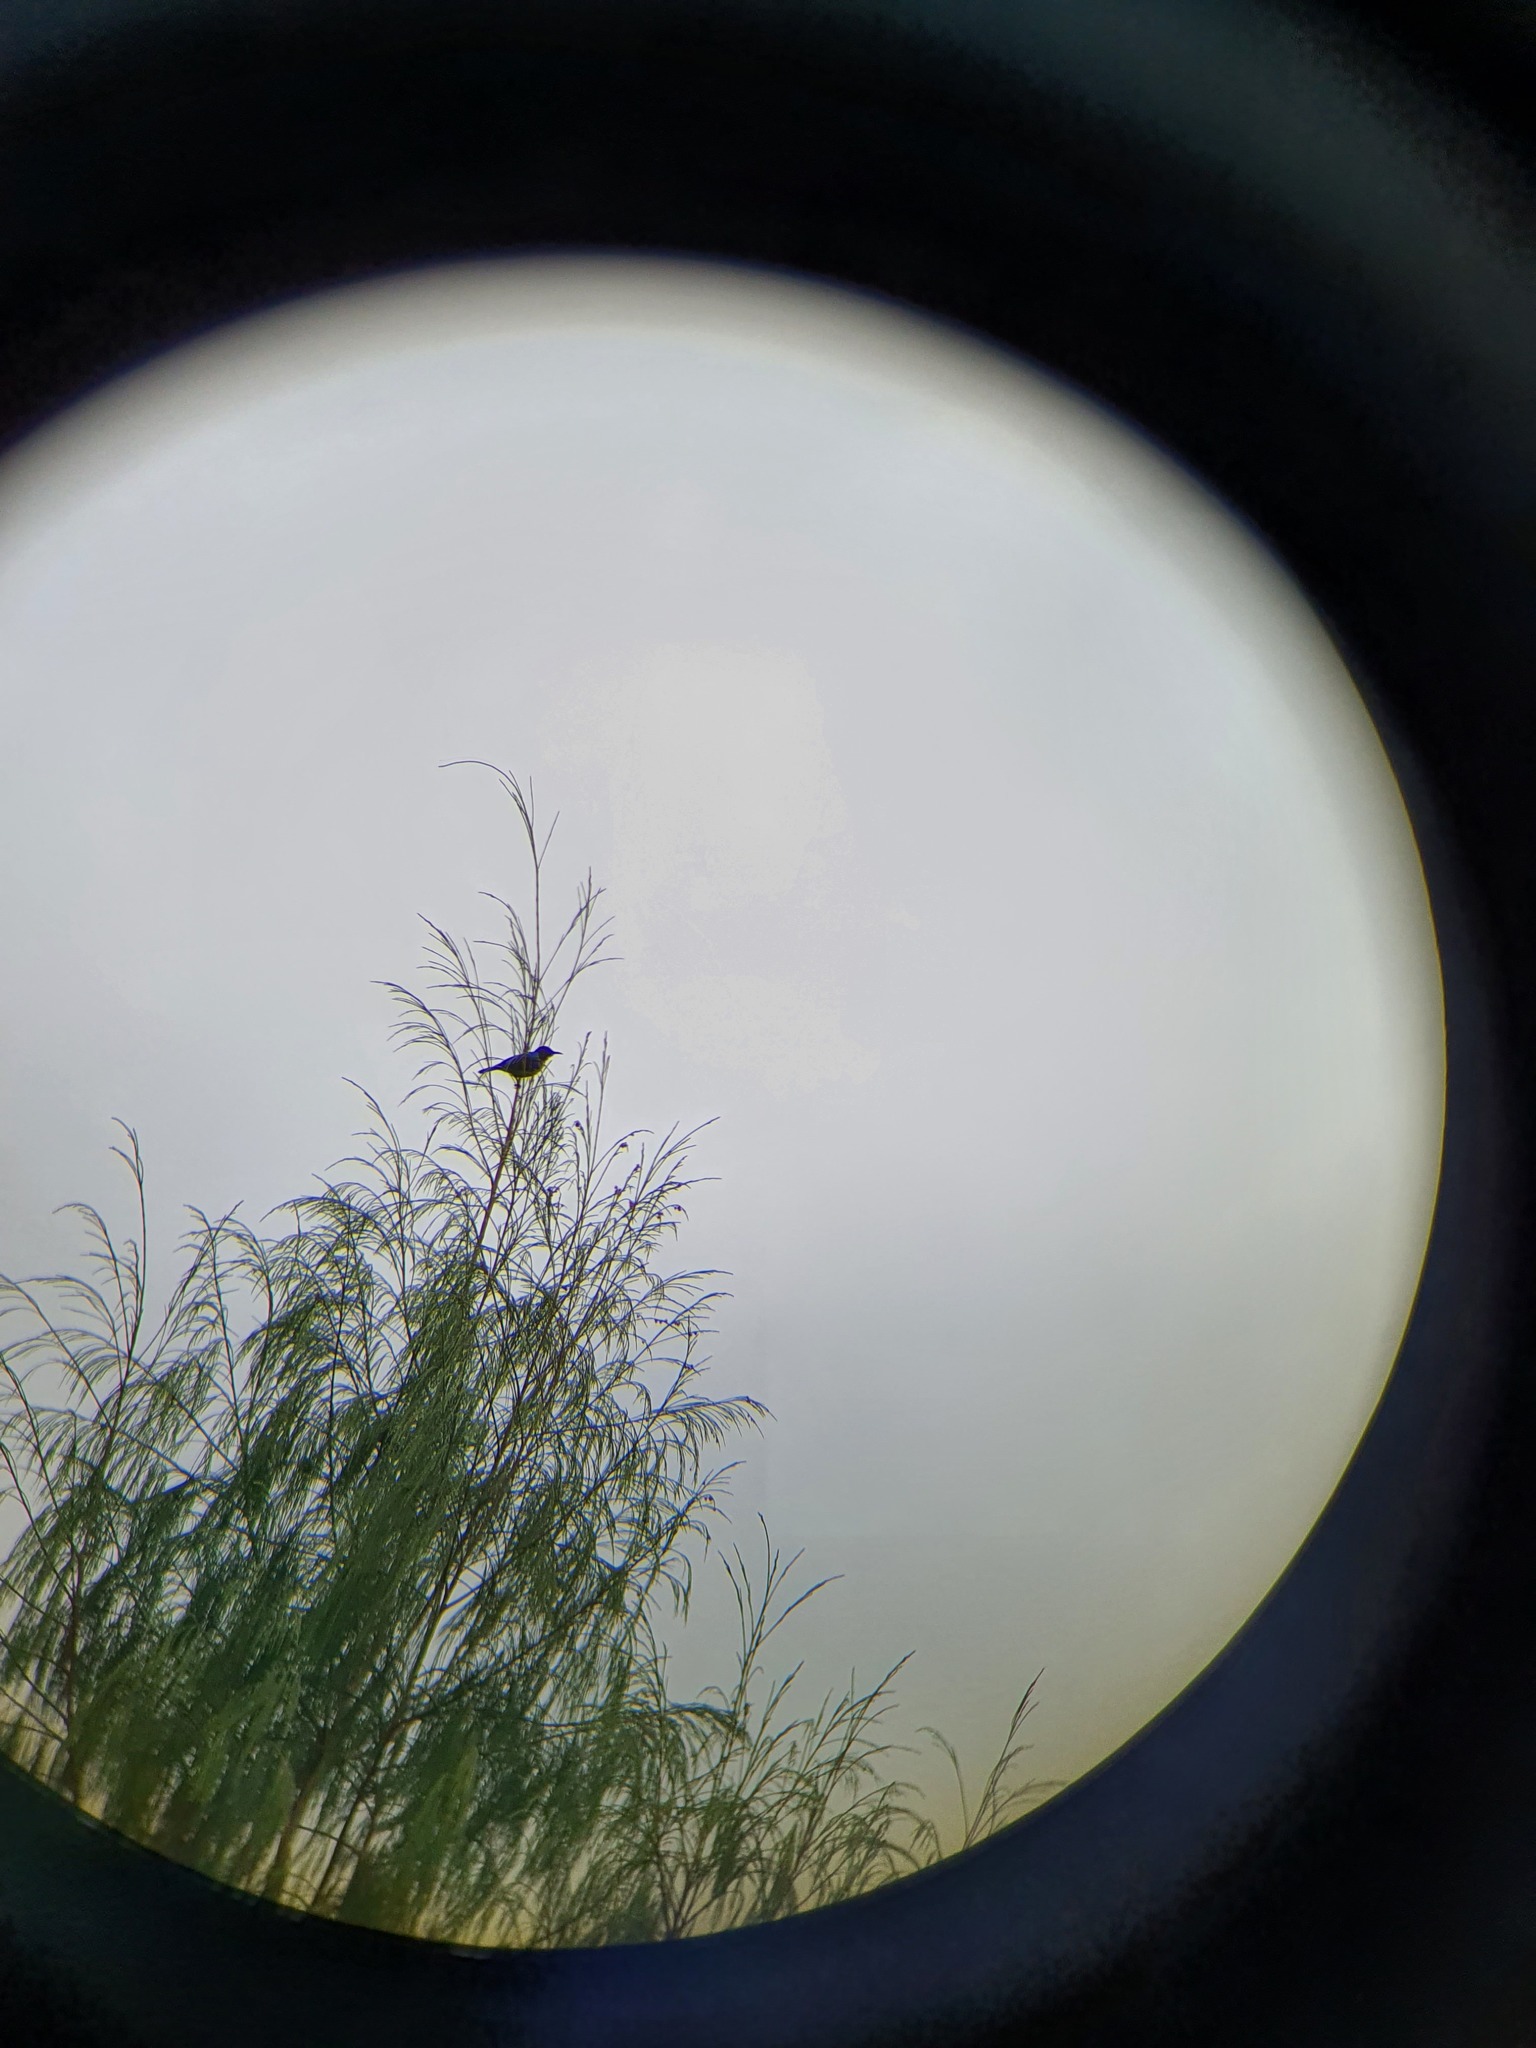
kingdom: Animalia
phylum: Chordata
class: Aves
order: Passeriformes
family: Nectariniidae
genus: Anthreptes
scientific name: Anthreptes malacensis
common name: Brown-throated sunbird
